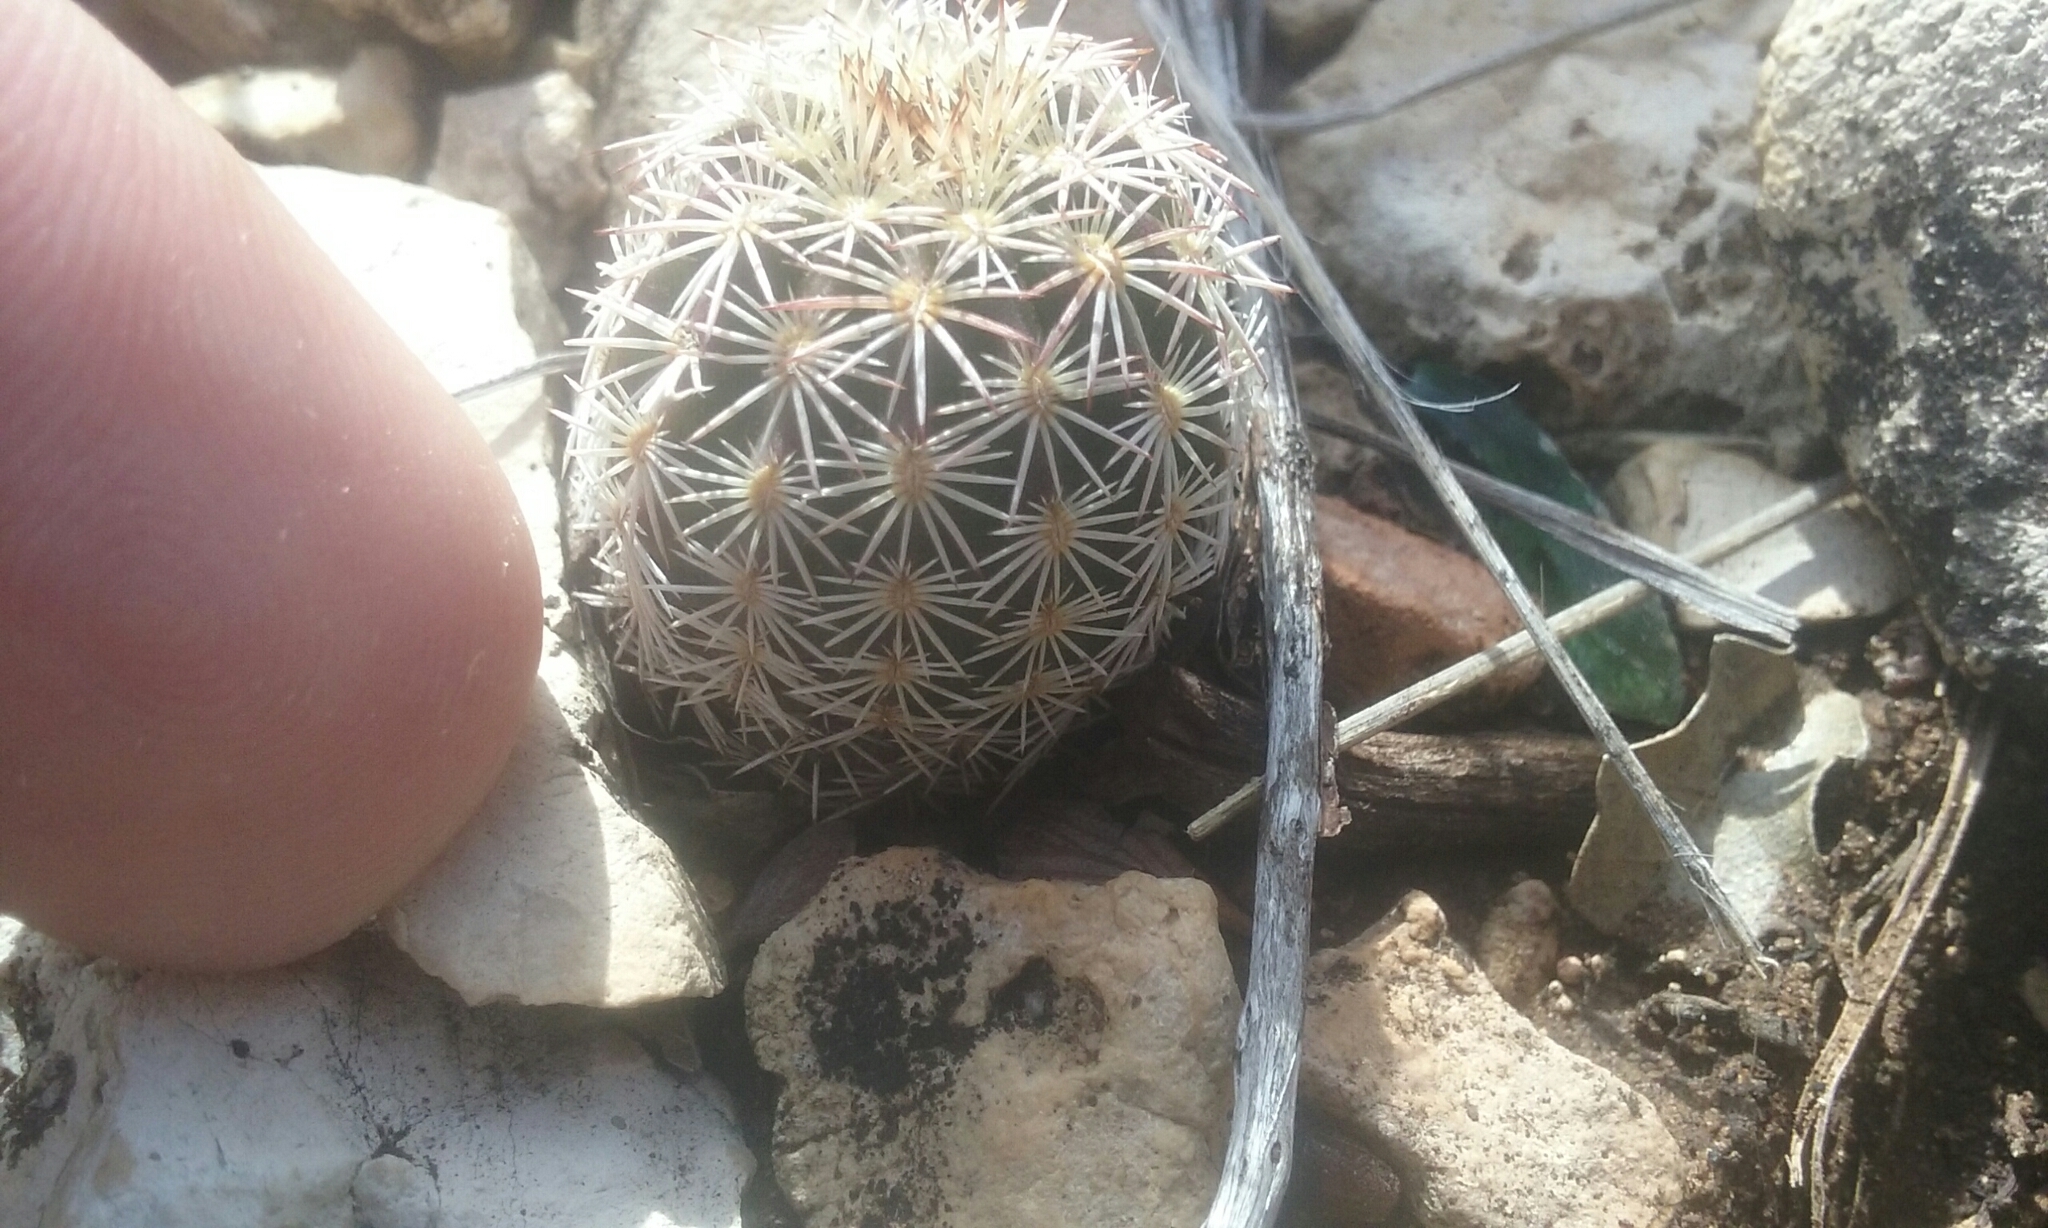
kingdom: Plantae
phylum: Tracheophyta
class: Magnoliopsida
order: Caryophyllales
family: Cactaceae
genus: Echinocereus
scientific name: Echinocereus viridiflorus
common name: Nylon hedgehog cactus
